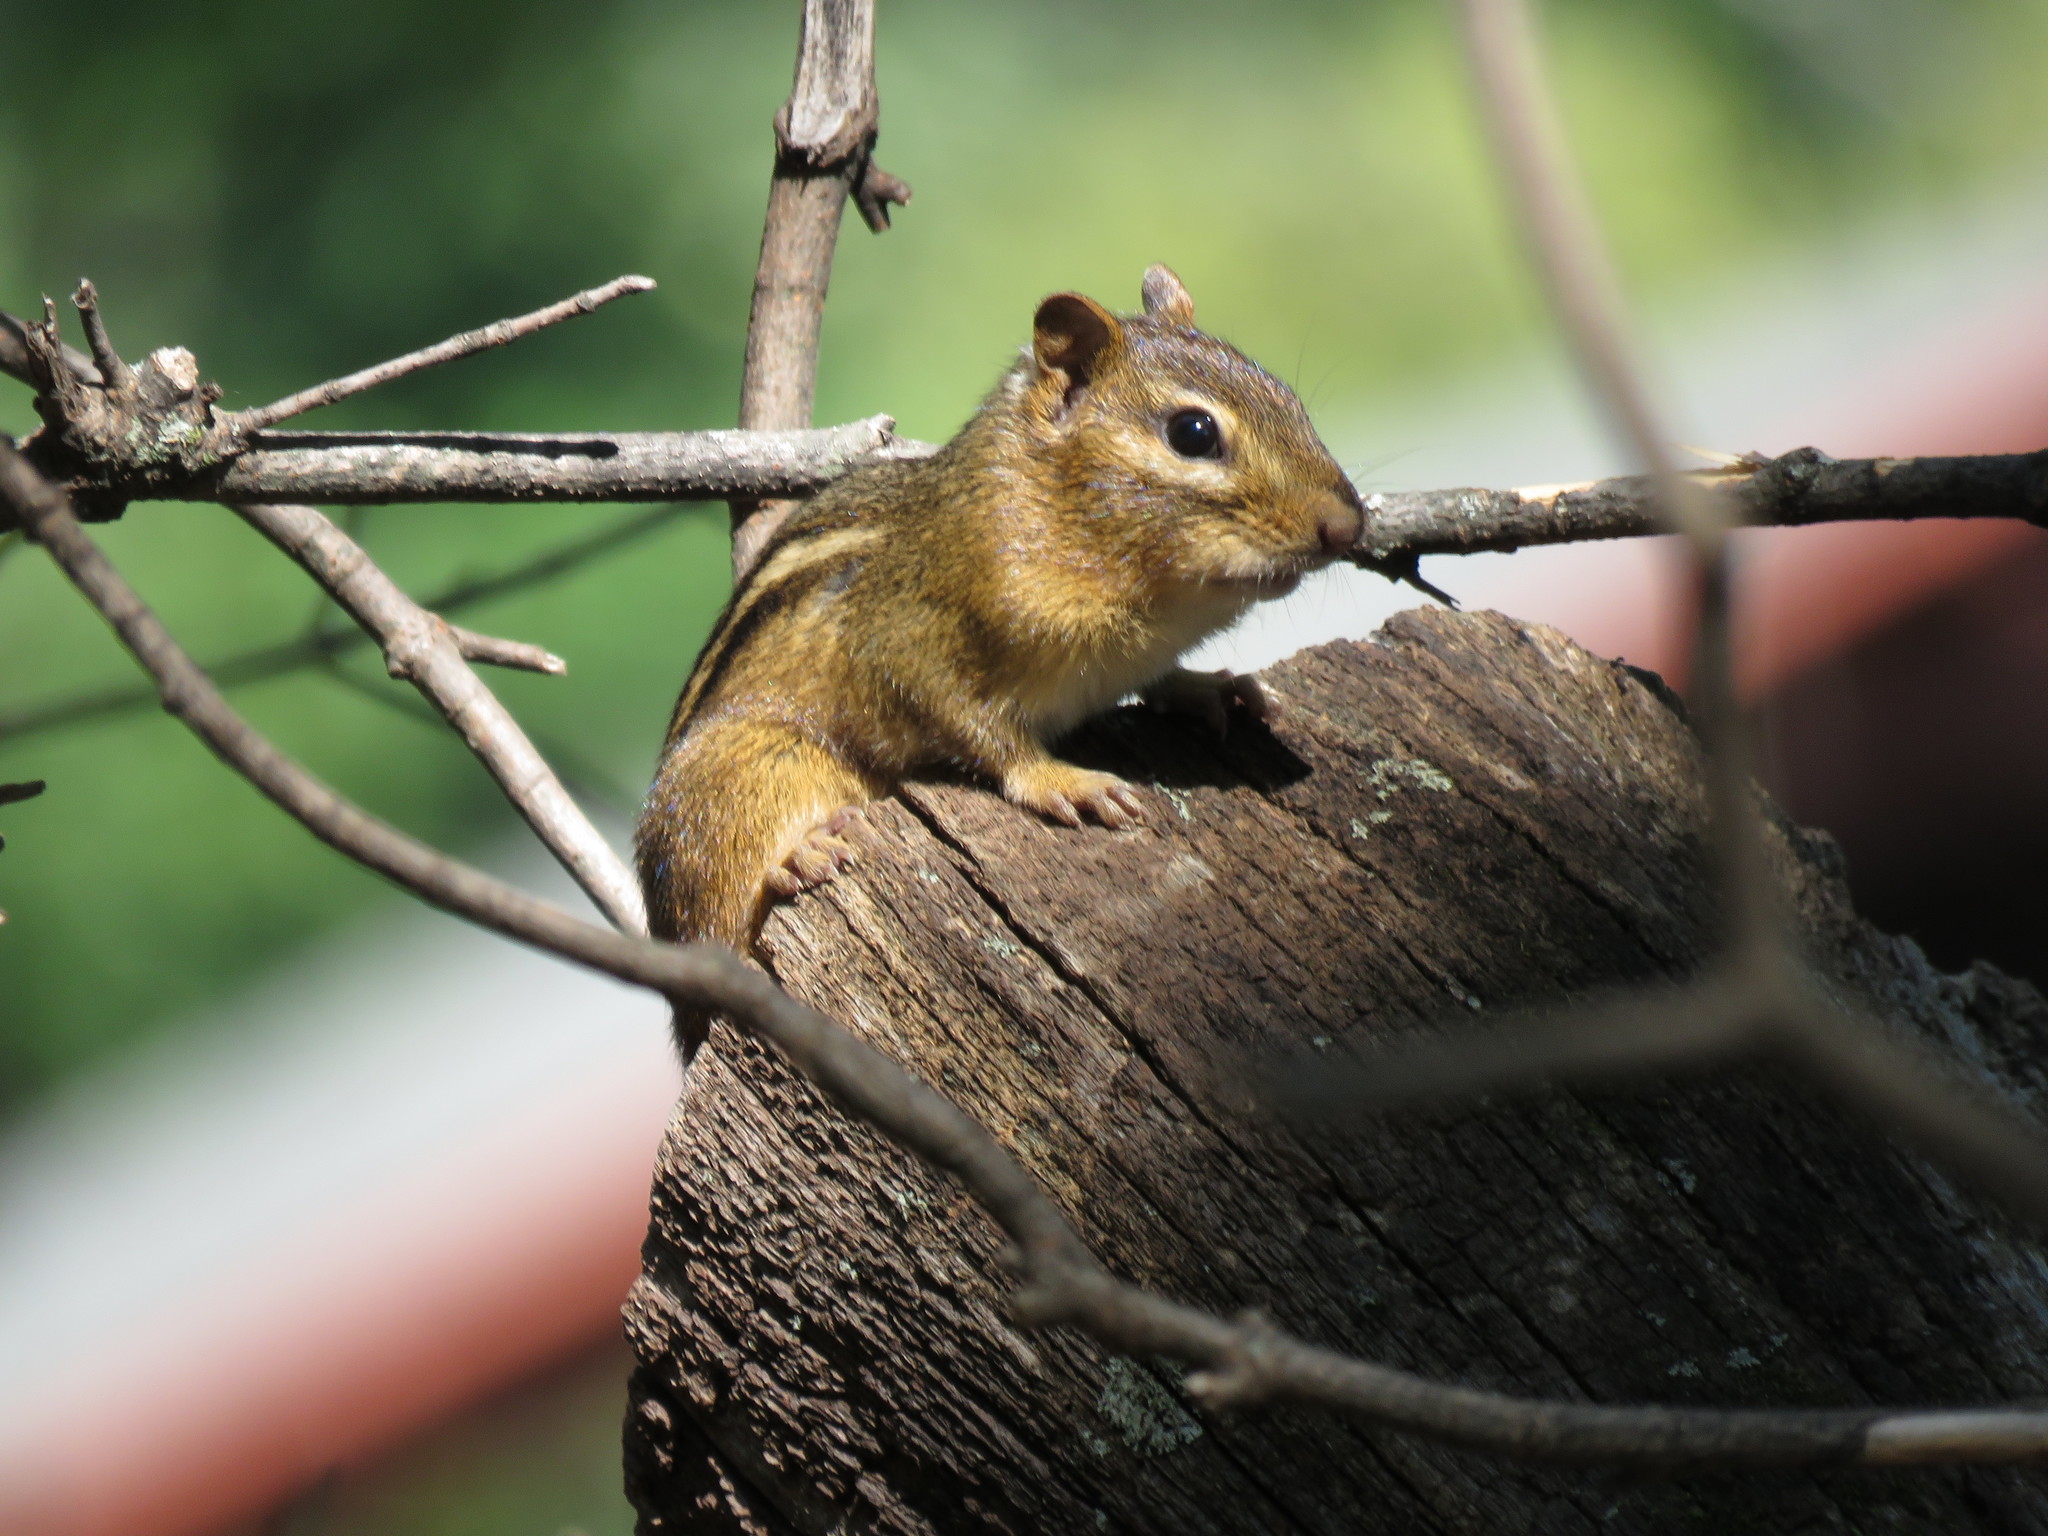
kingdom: Animalia
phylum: Chordata
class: Mammalia
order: Rodentia
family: Sciuridae
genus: Tamias
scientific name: Tamias striatus
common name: Eastern chipmunk
